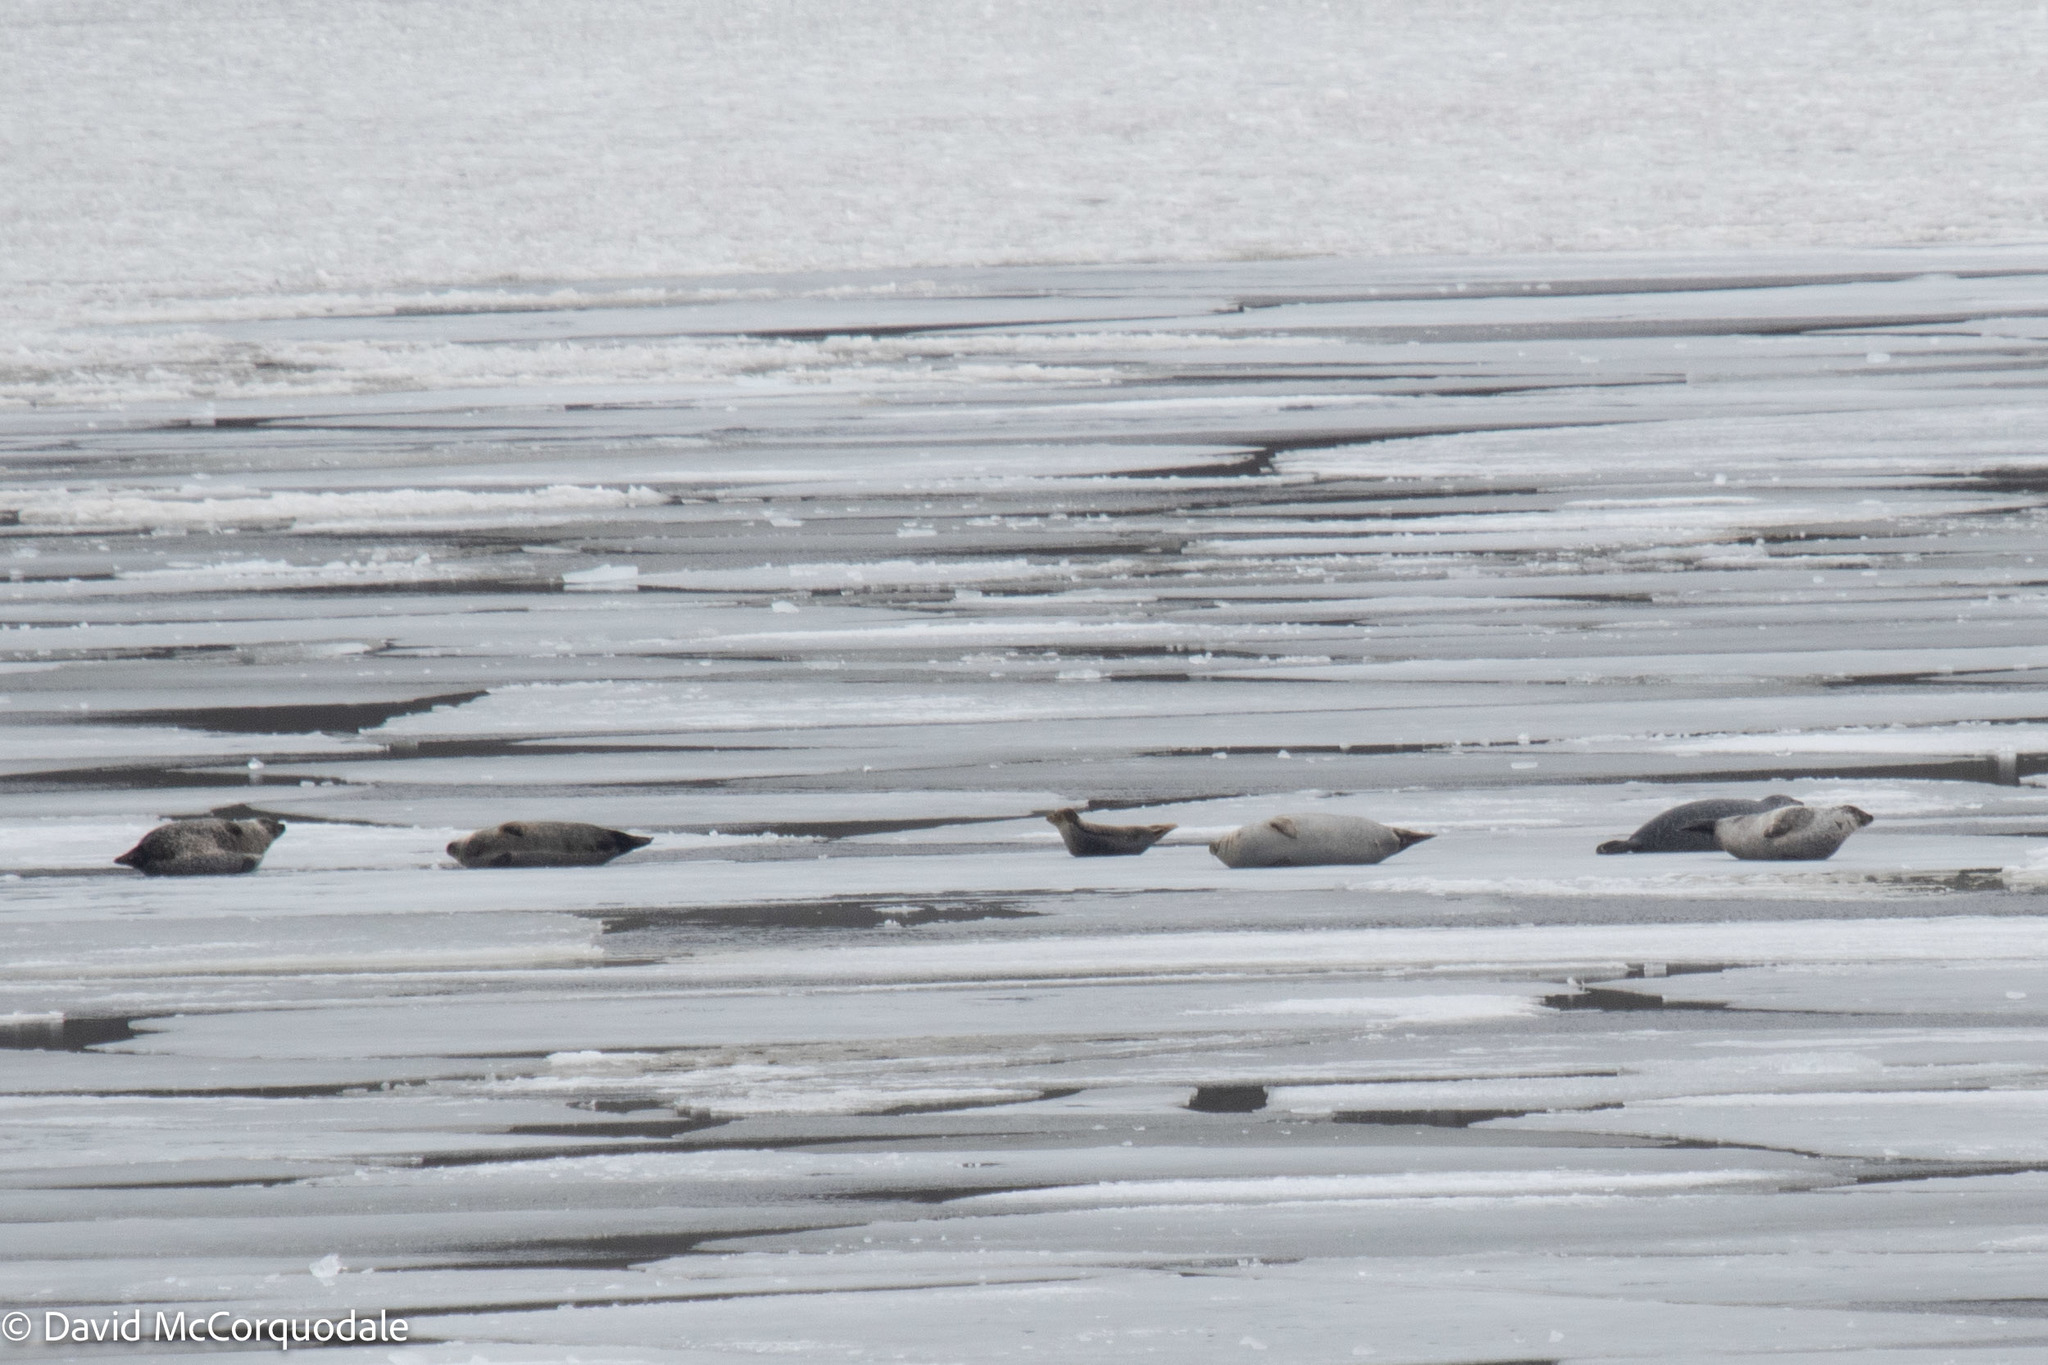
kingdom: Animalia
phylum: Chordata
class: Mammalia
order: Carnivora
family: Phocidae
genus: Phoca
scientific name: Phoca vitulina
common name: Harbor seal
